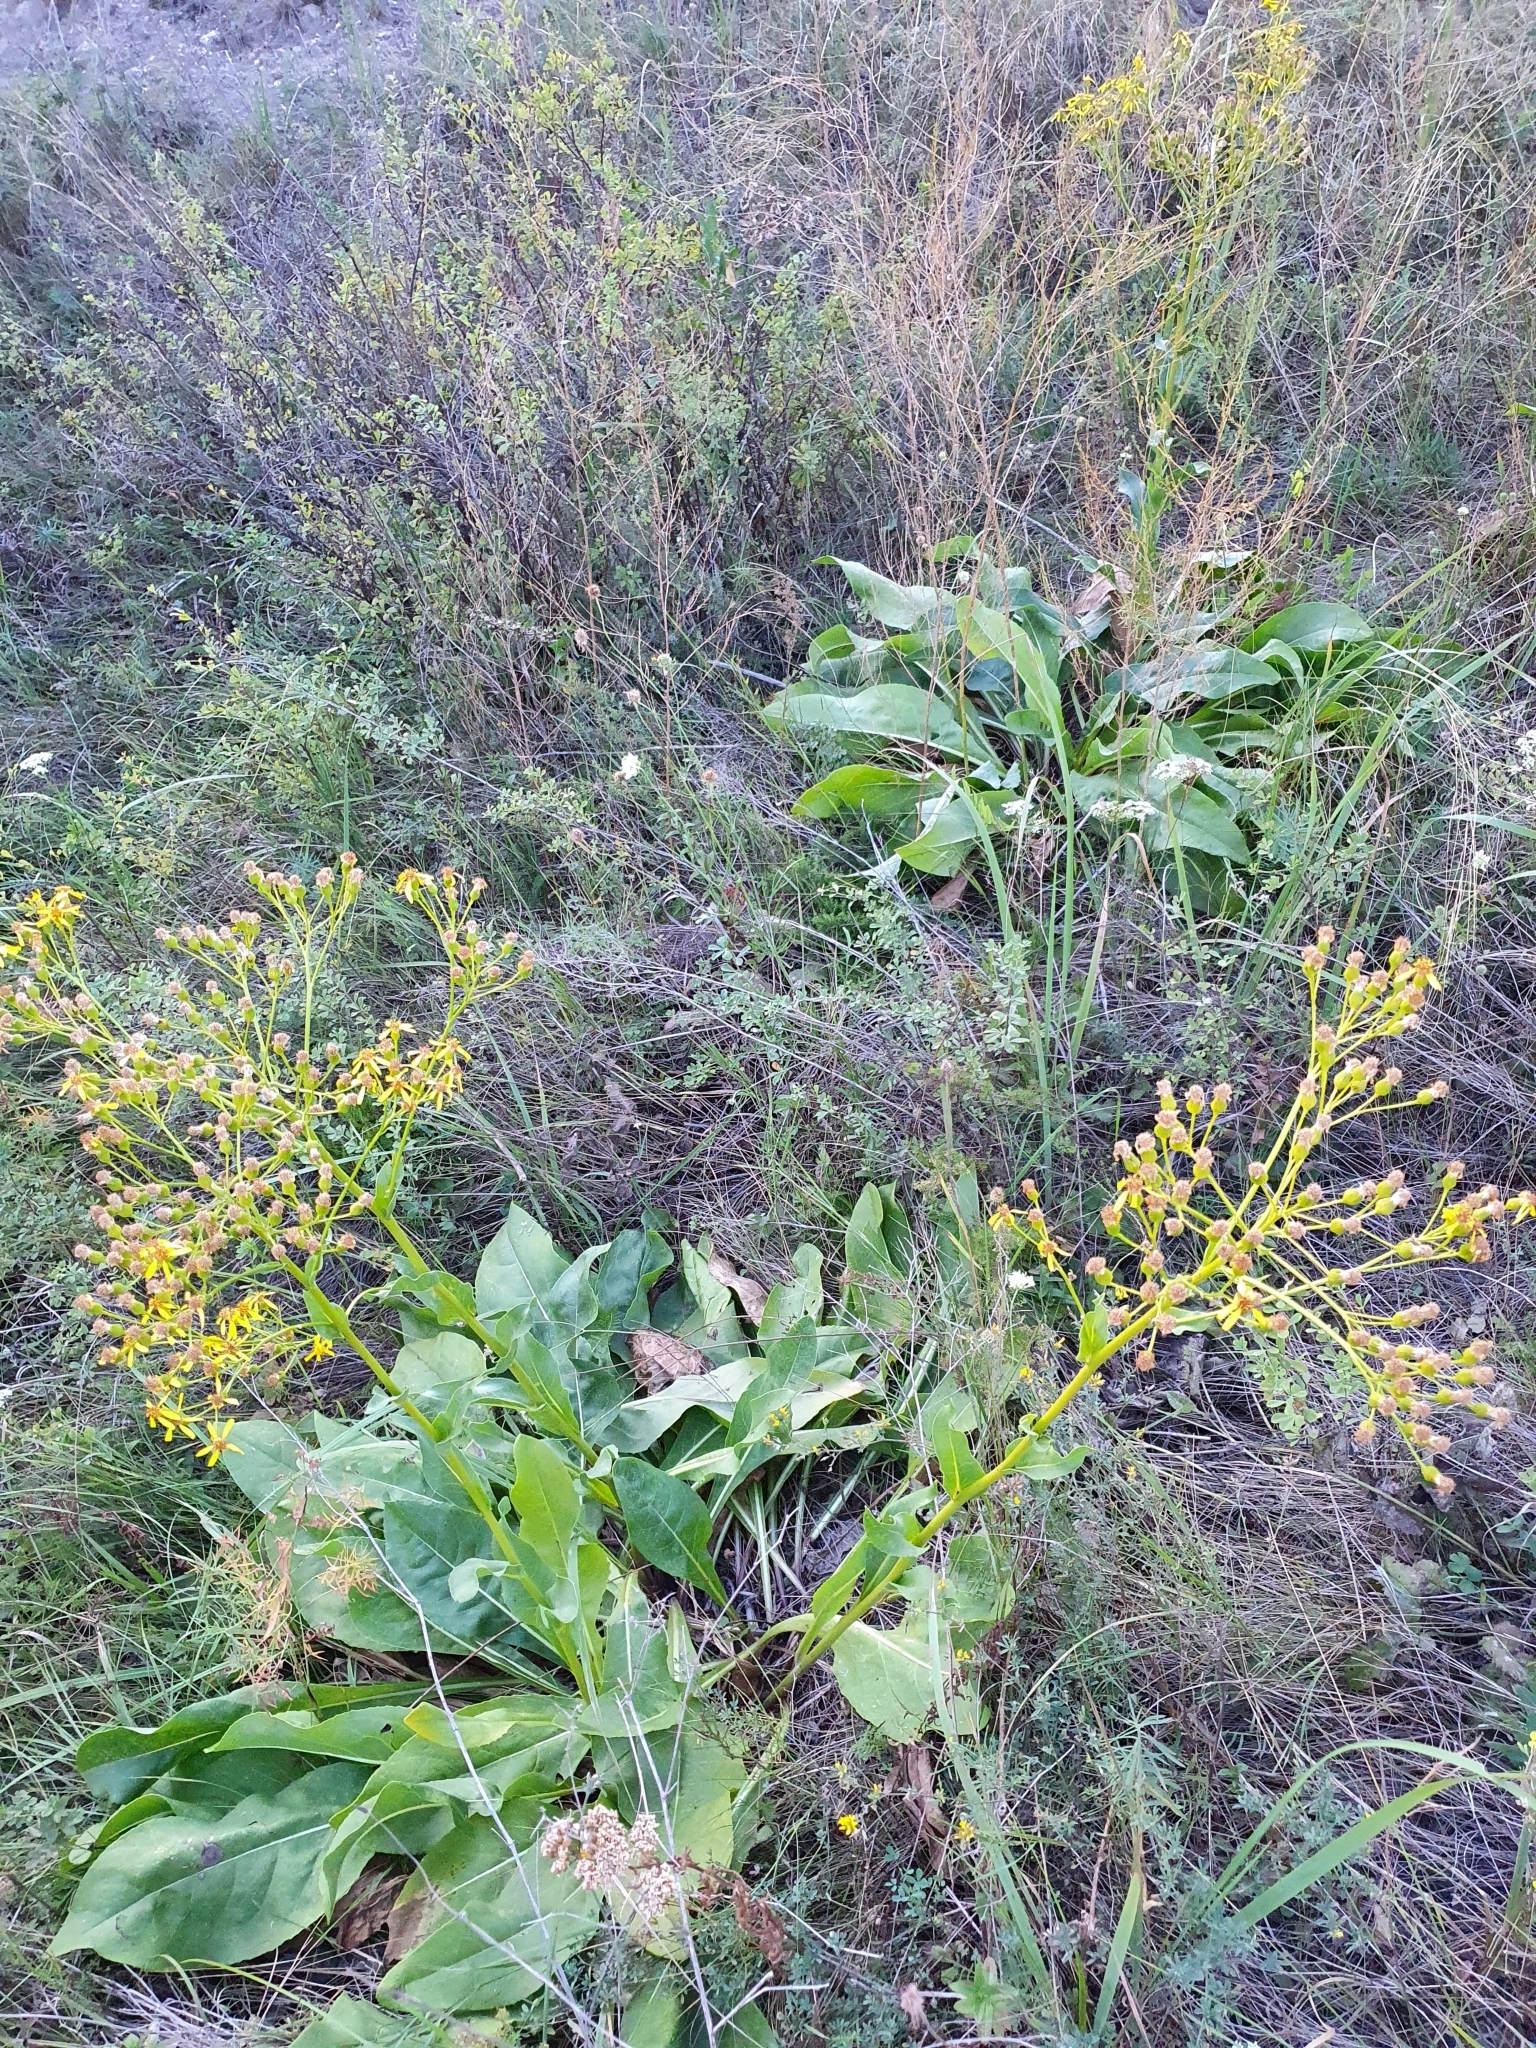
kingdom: Plantae
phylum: Tracheophyta
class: Magnoliopsida
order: Asterales
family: Asteraceae
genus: Senecio
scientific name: Senecio doria
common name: Golden ragwort
